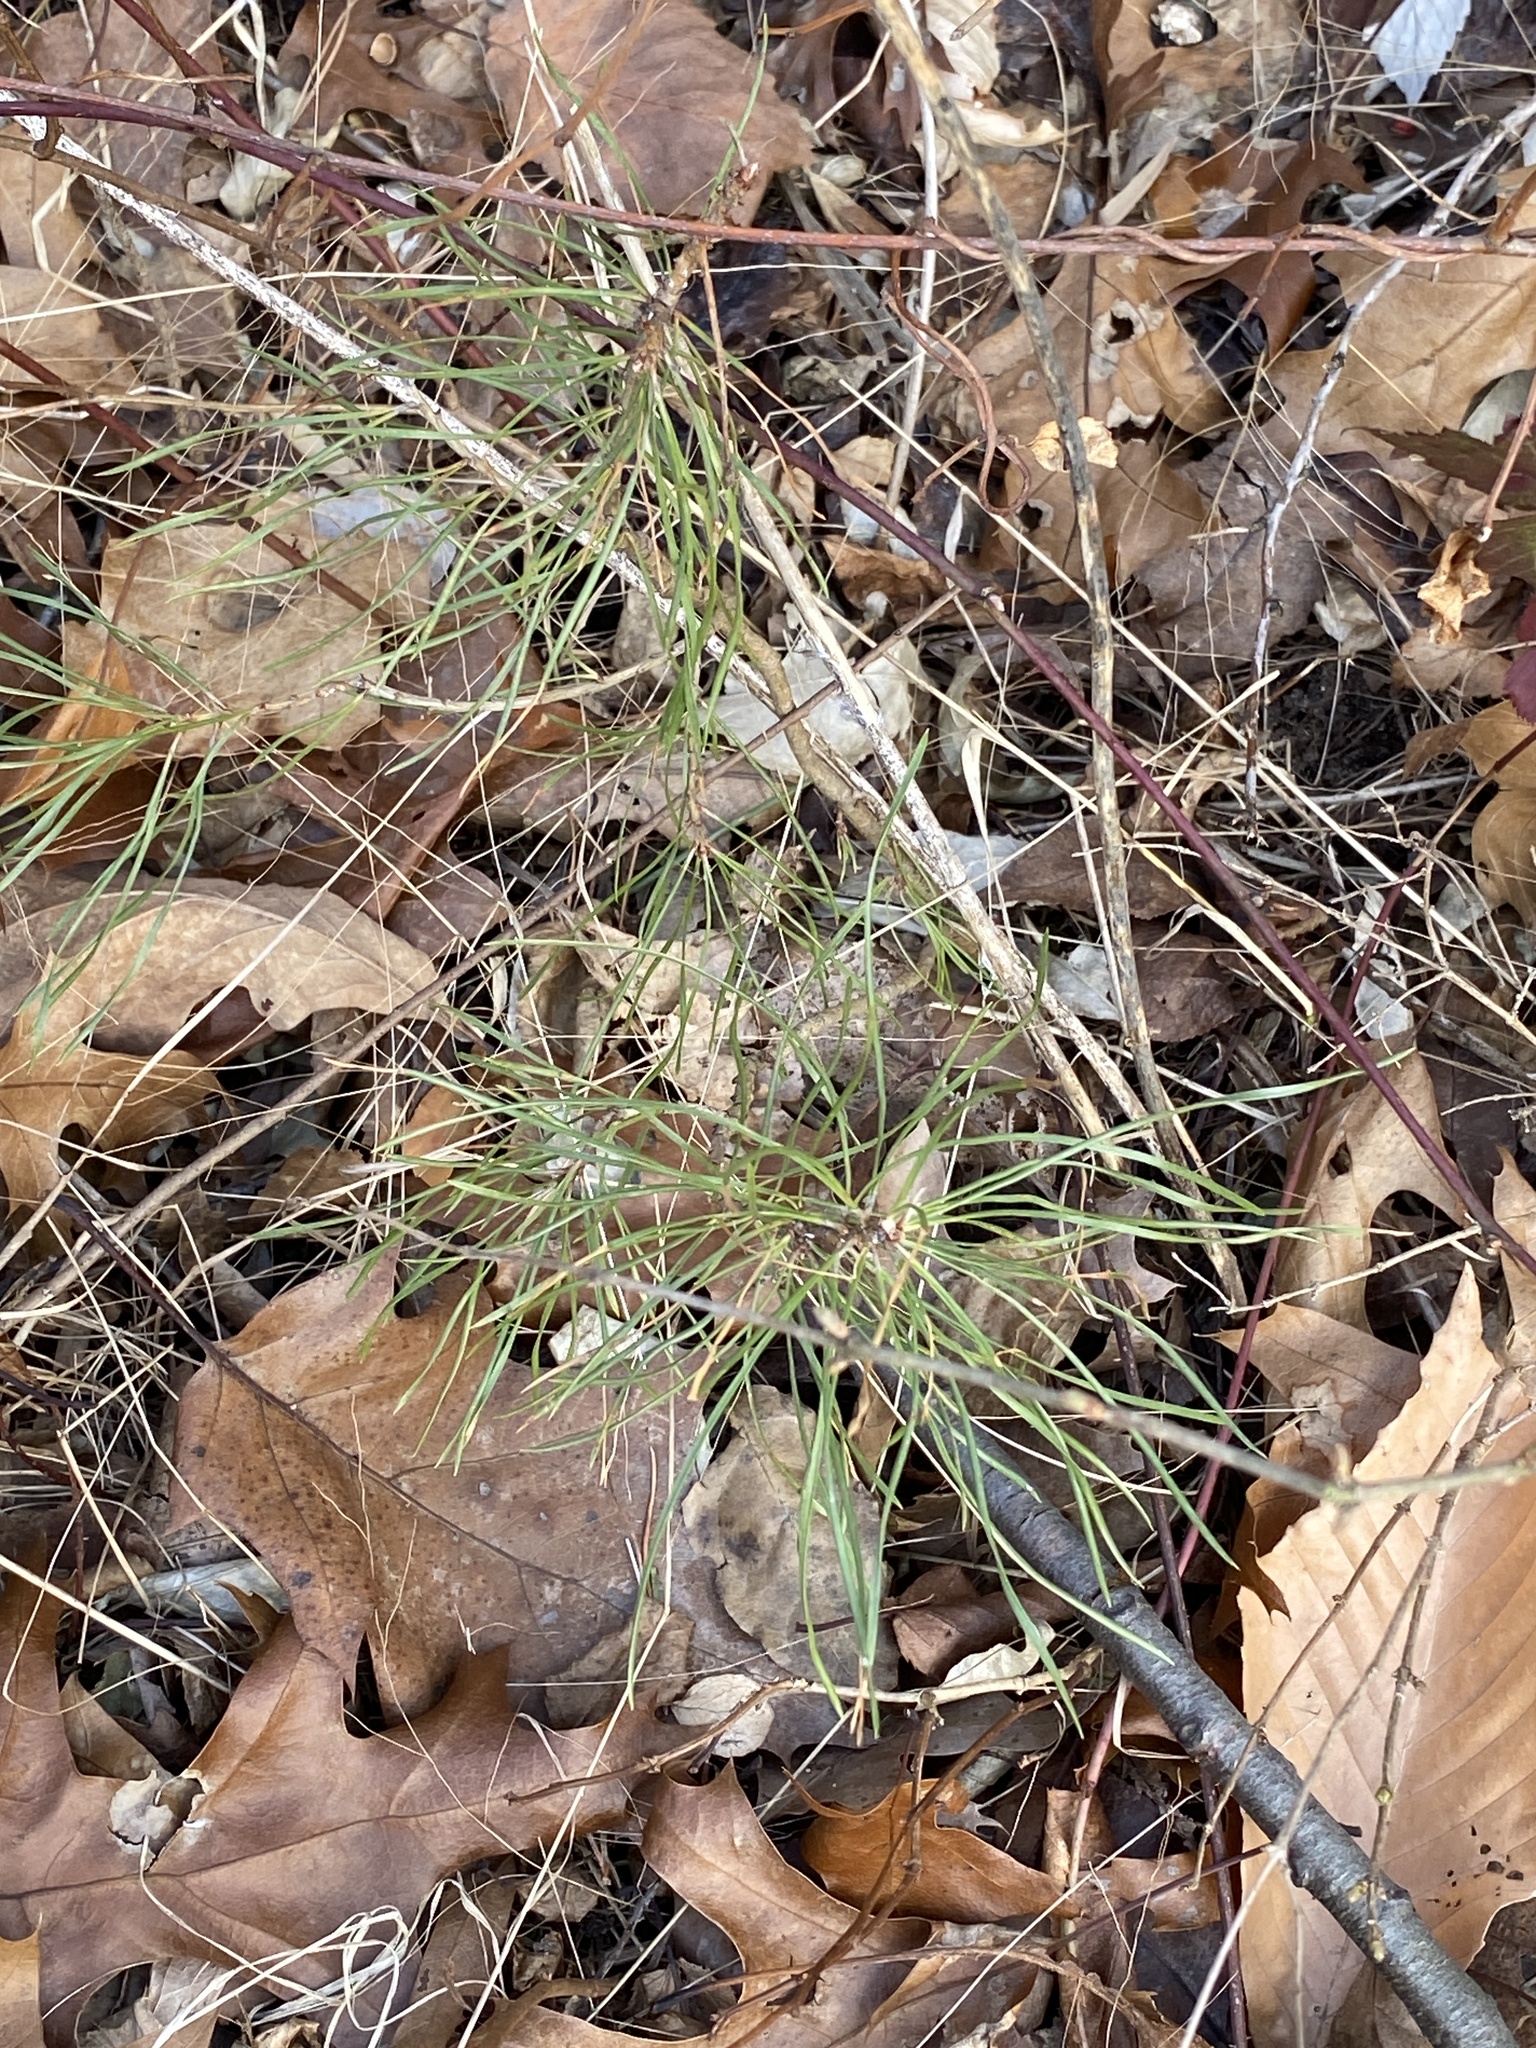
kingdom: Plantae
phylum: Tracheophyta
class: Pinopsida
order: Pinales
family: Pinaceae
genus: Pinus
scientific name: Pinus sylvestris
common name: Scots pine
